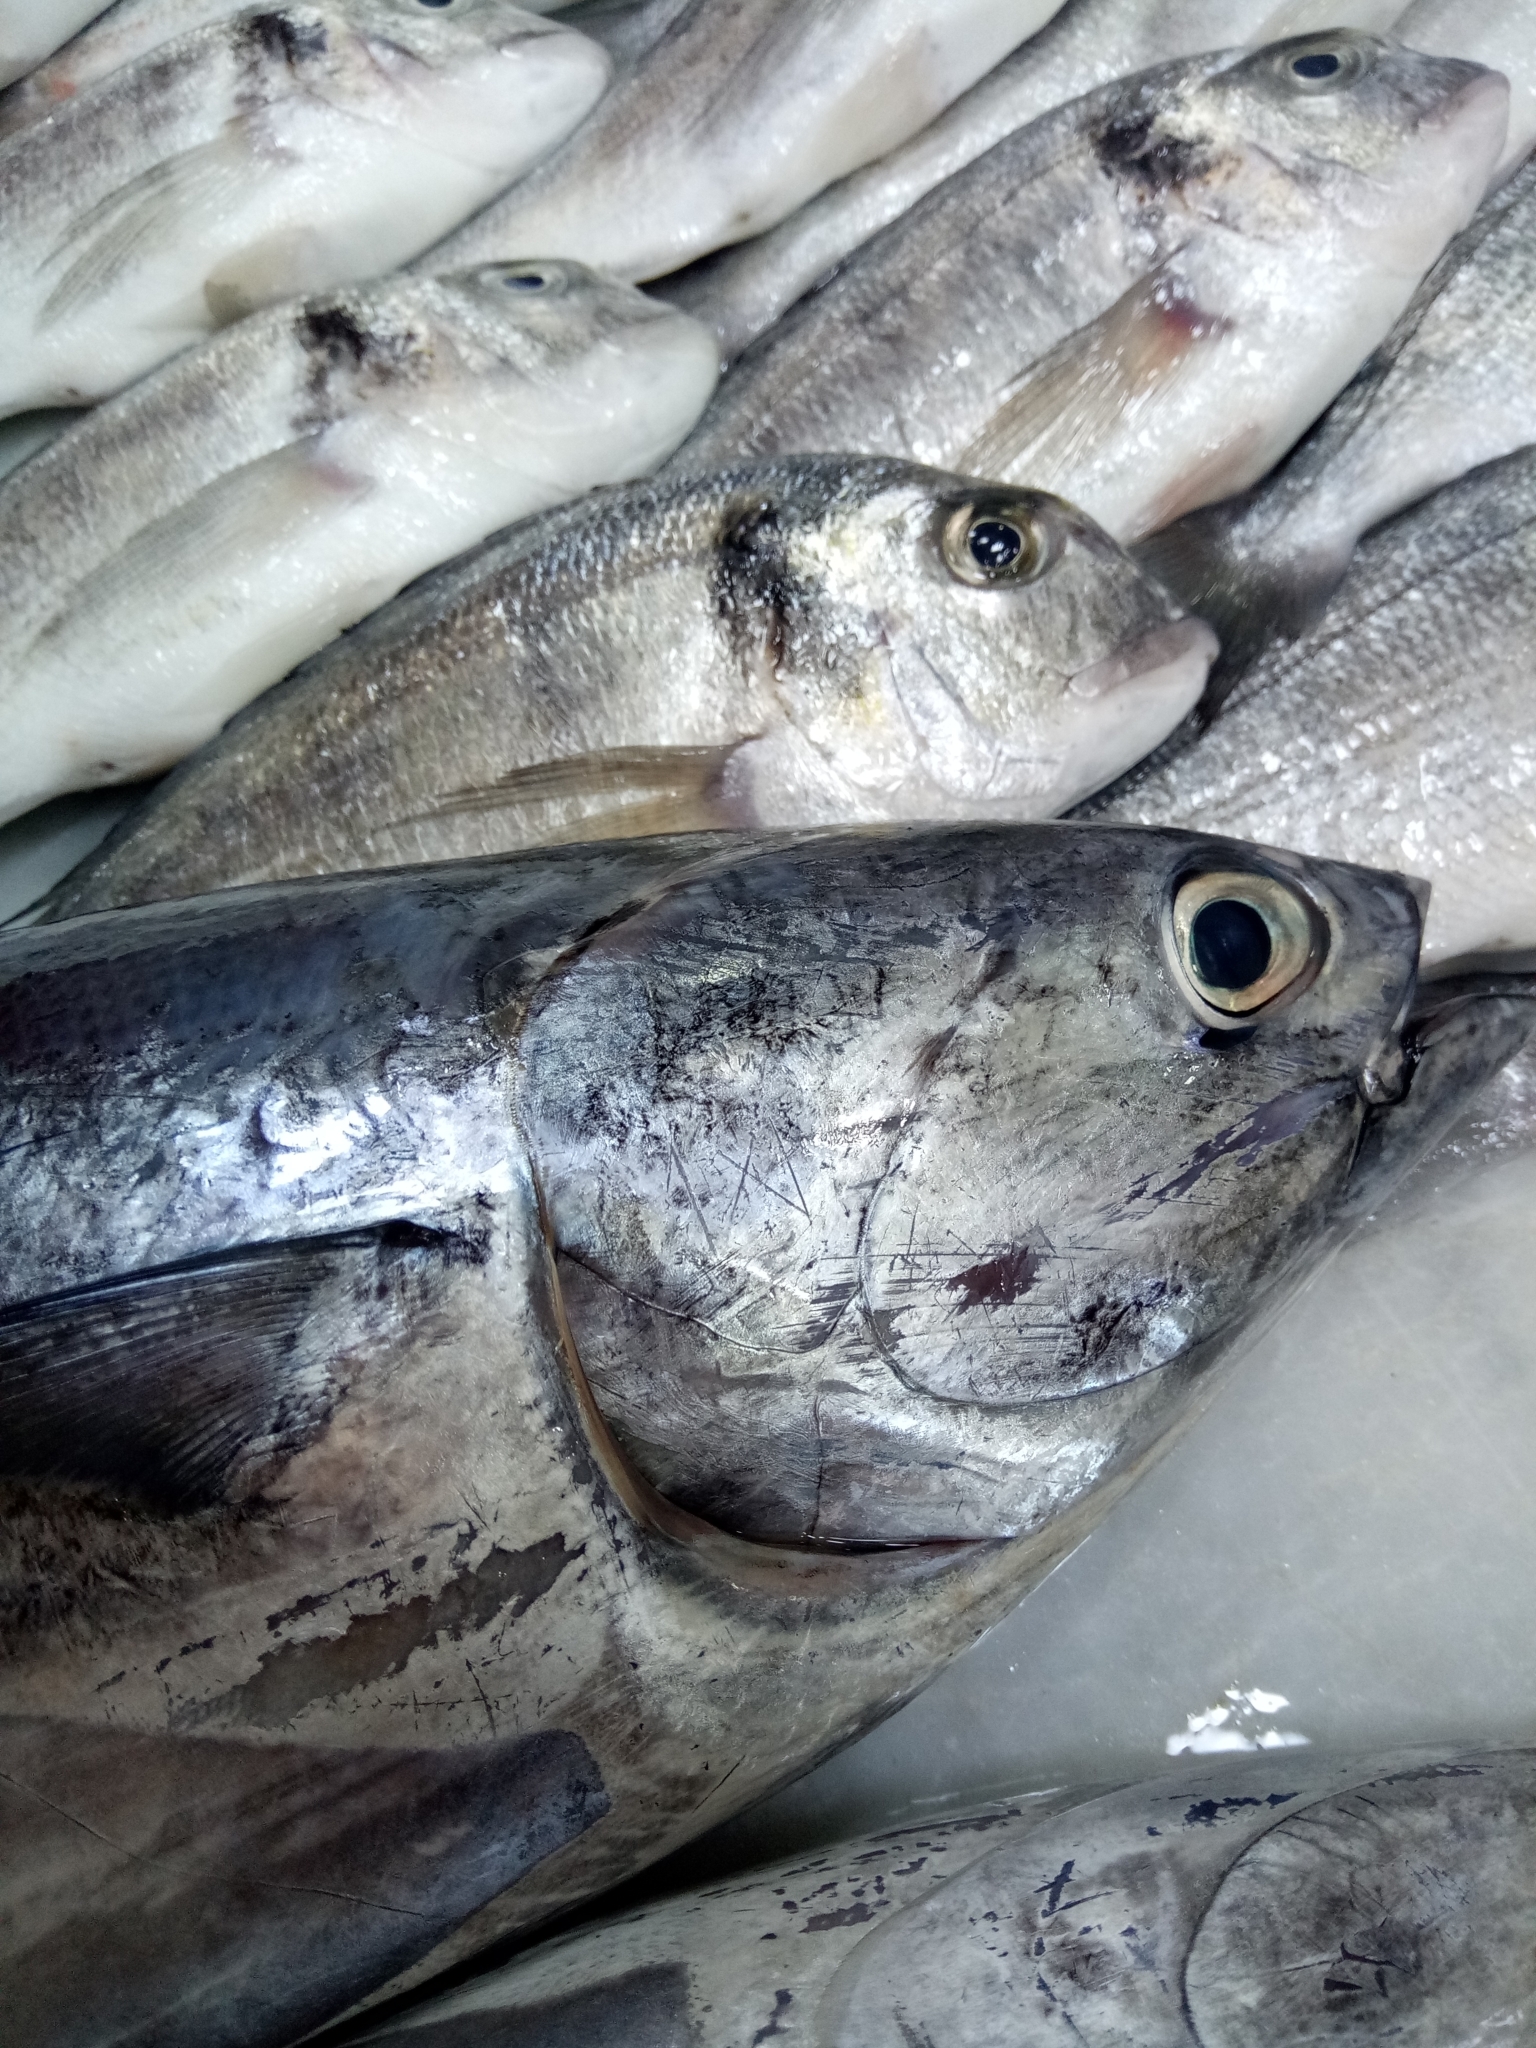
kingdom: Animalia
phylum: Chordata
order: Perciformes
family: Scombridae
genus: Auxis
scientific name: Auxis thazard
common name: Frigate mackerel
